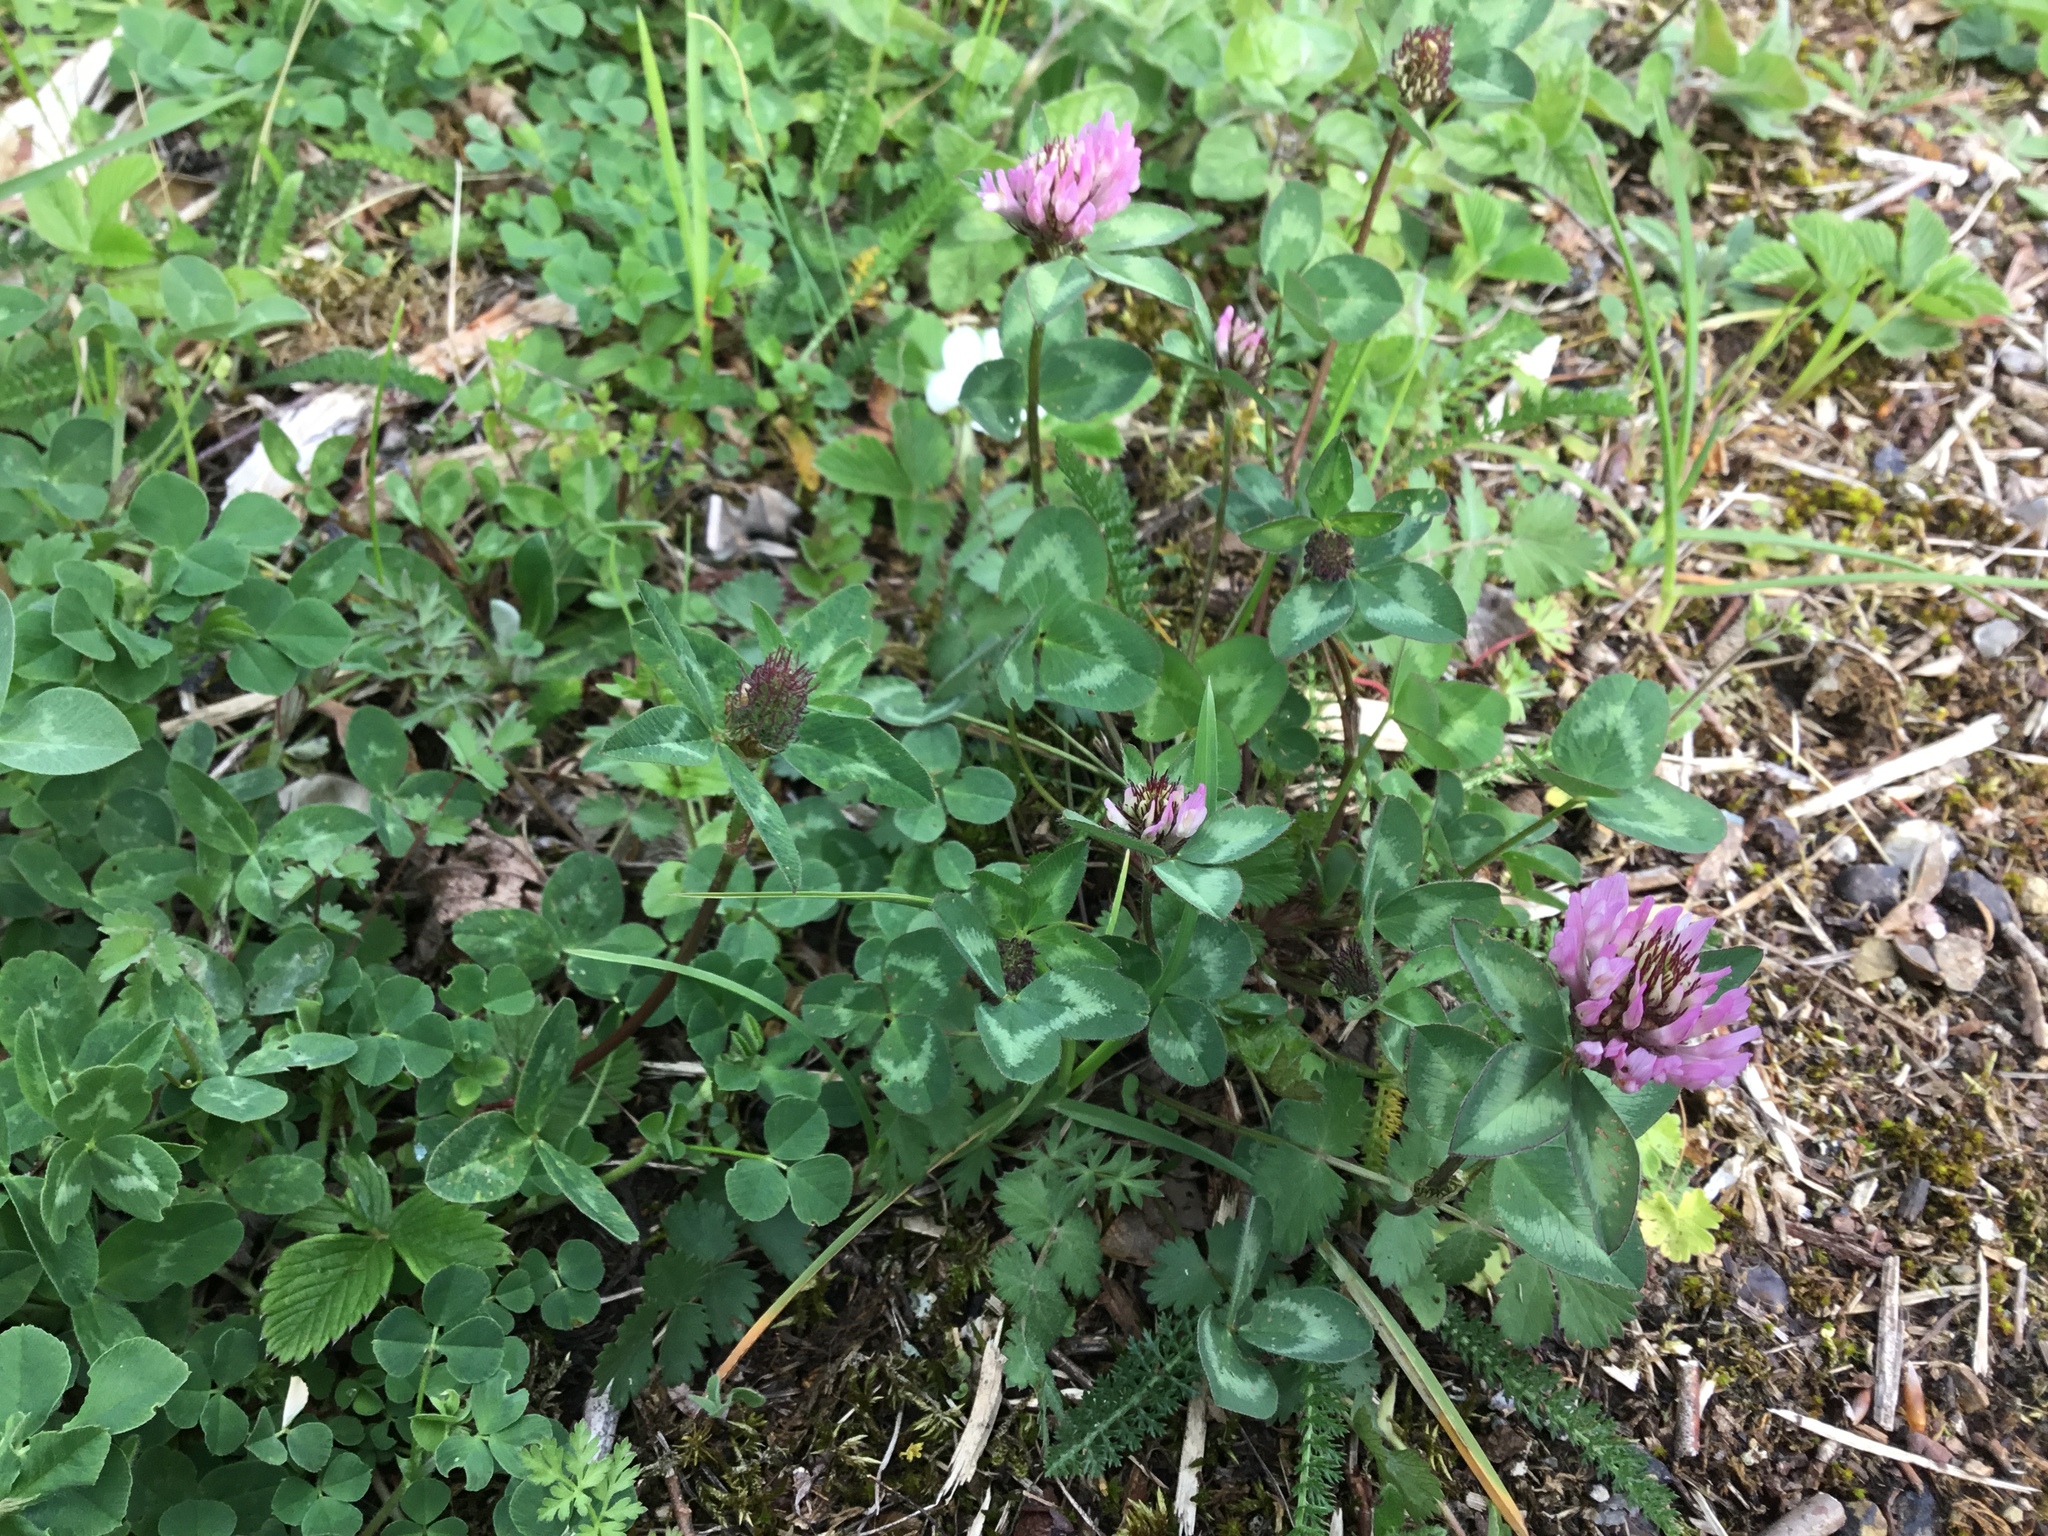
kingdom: Plantae
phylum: Tracheophyta
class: Magnoliopsida
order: Fabales
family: Fabaceae
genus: Trifolium
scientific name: Trifolium pratense
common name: Red clover
